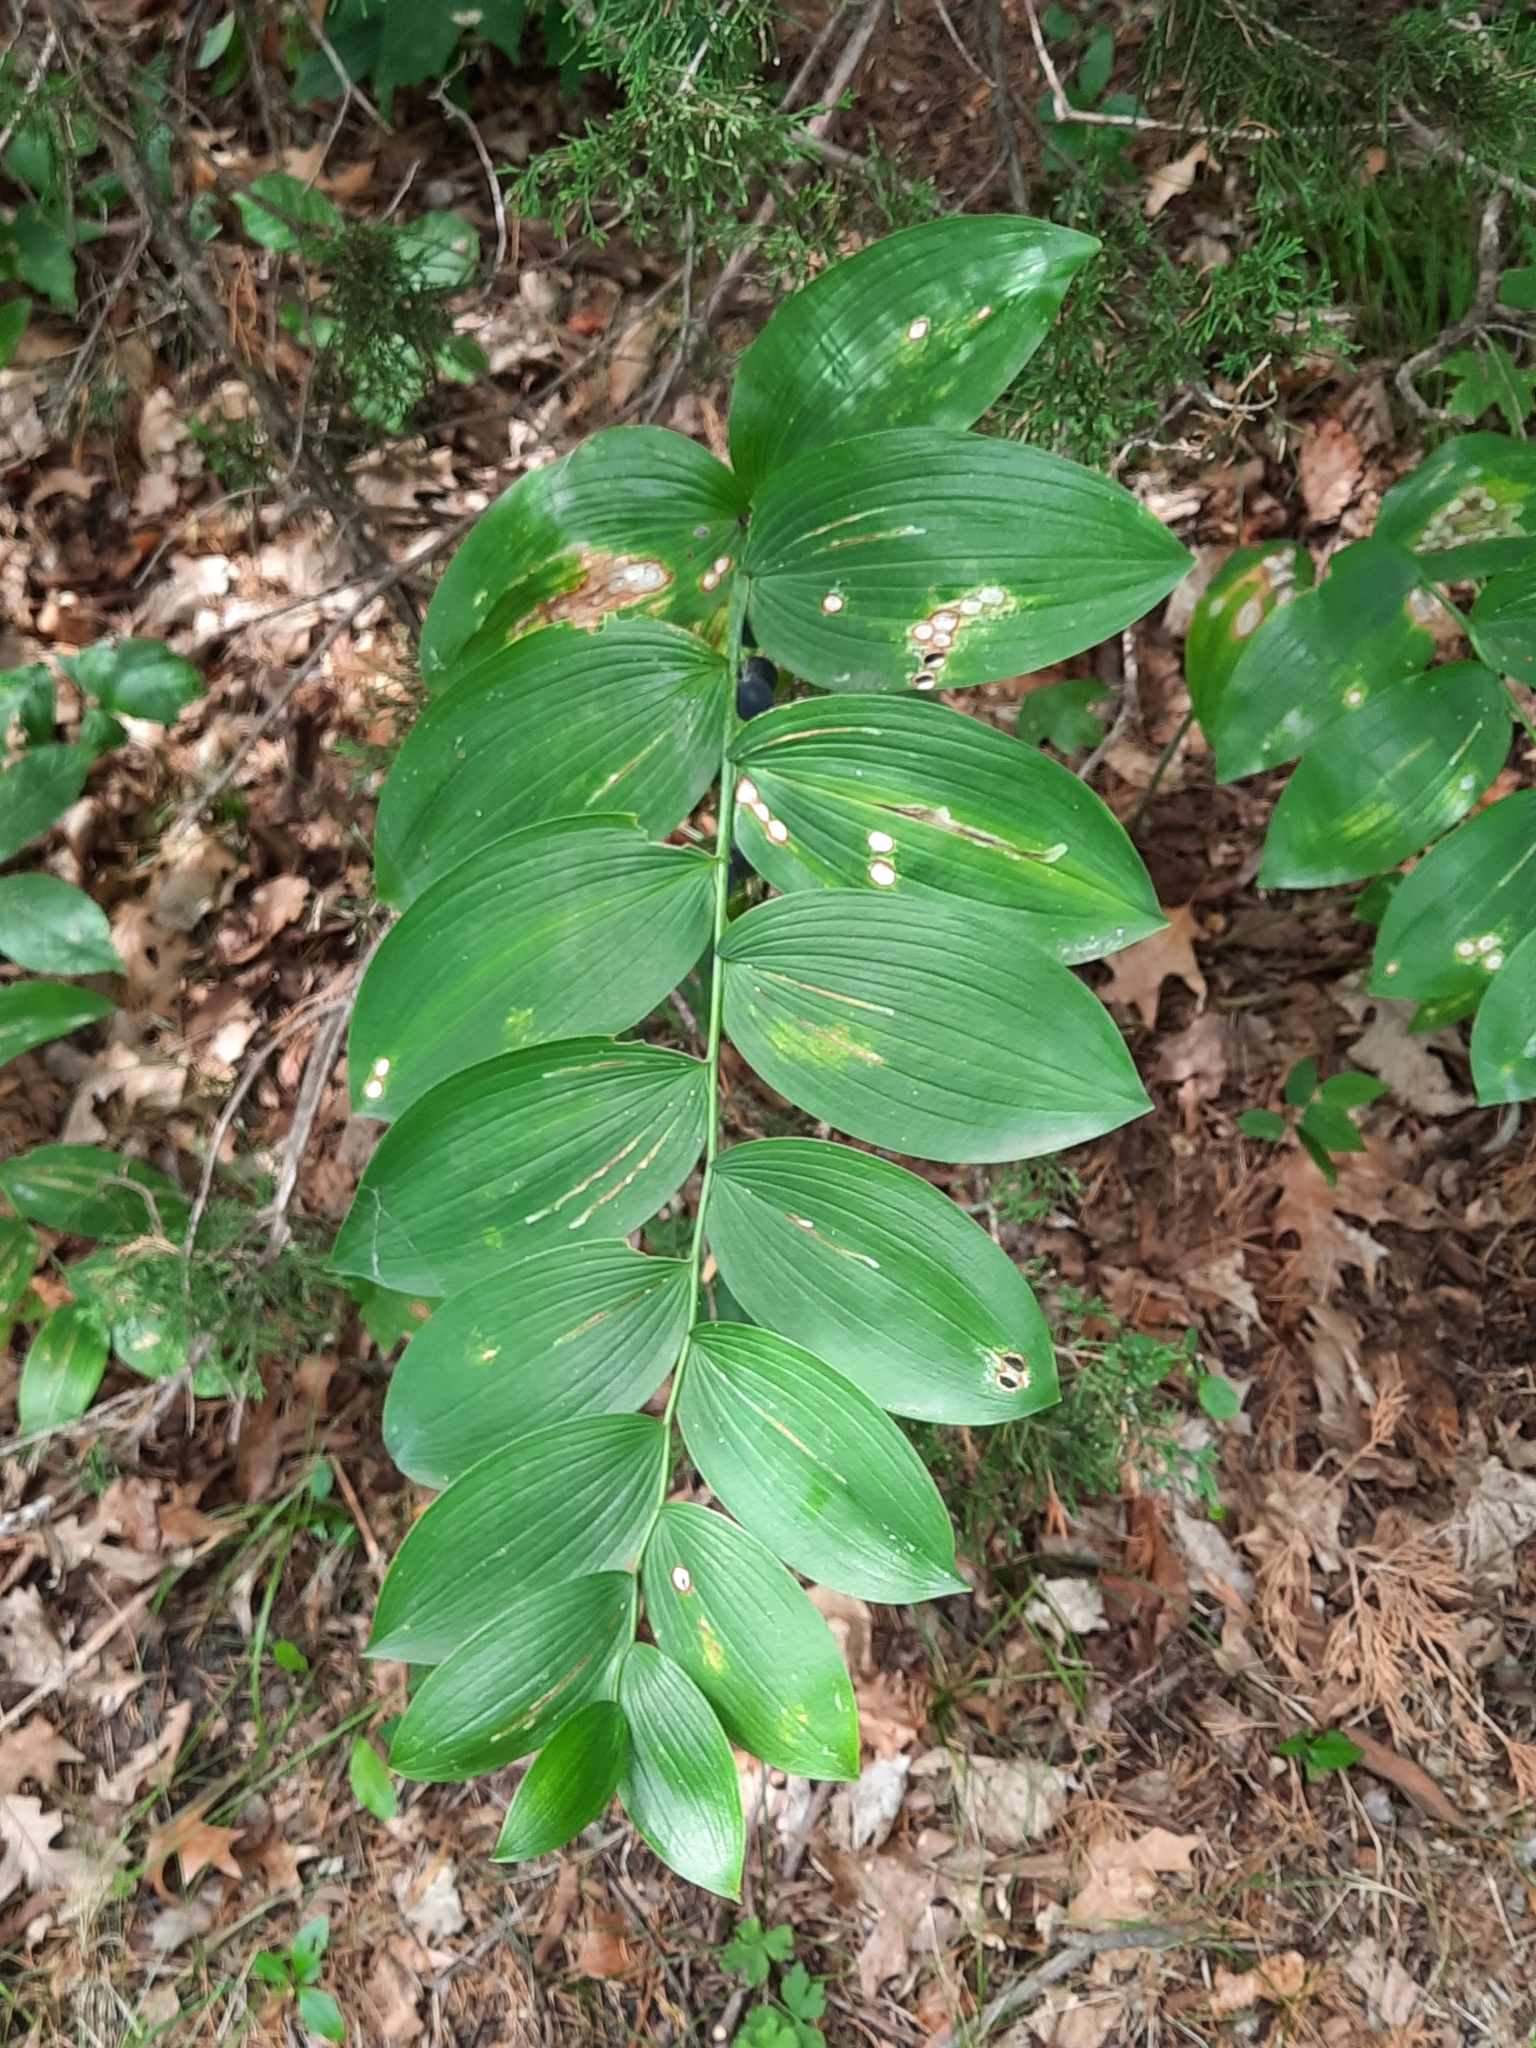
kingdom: Plantae
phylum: Tracheophyta
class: Liliopsida
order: Asparagales
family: Asparagaceae
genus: Polygonatum
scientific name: Polygonatum biflorum
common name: American solomon's-seal
